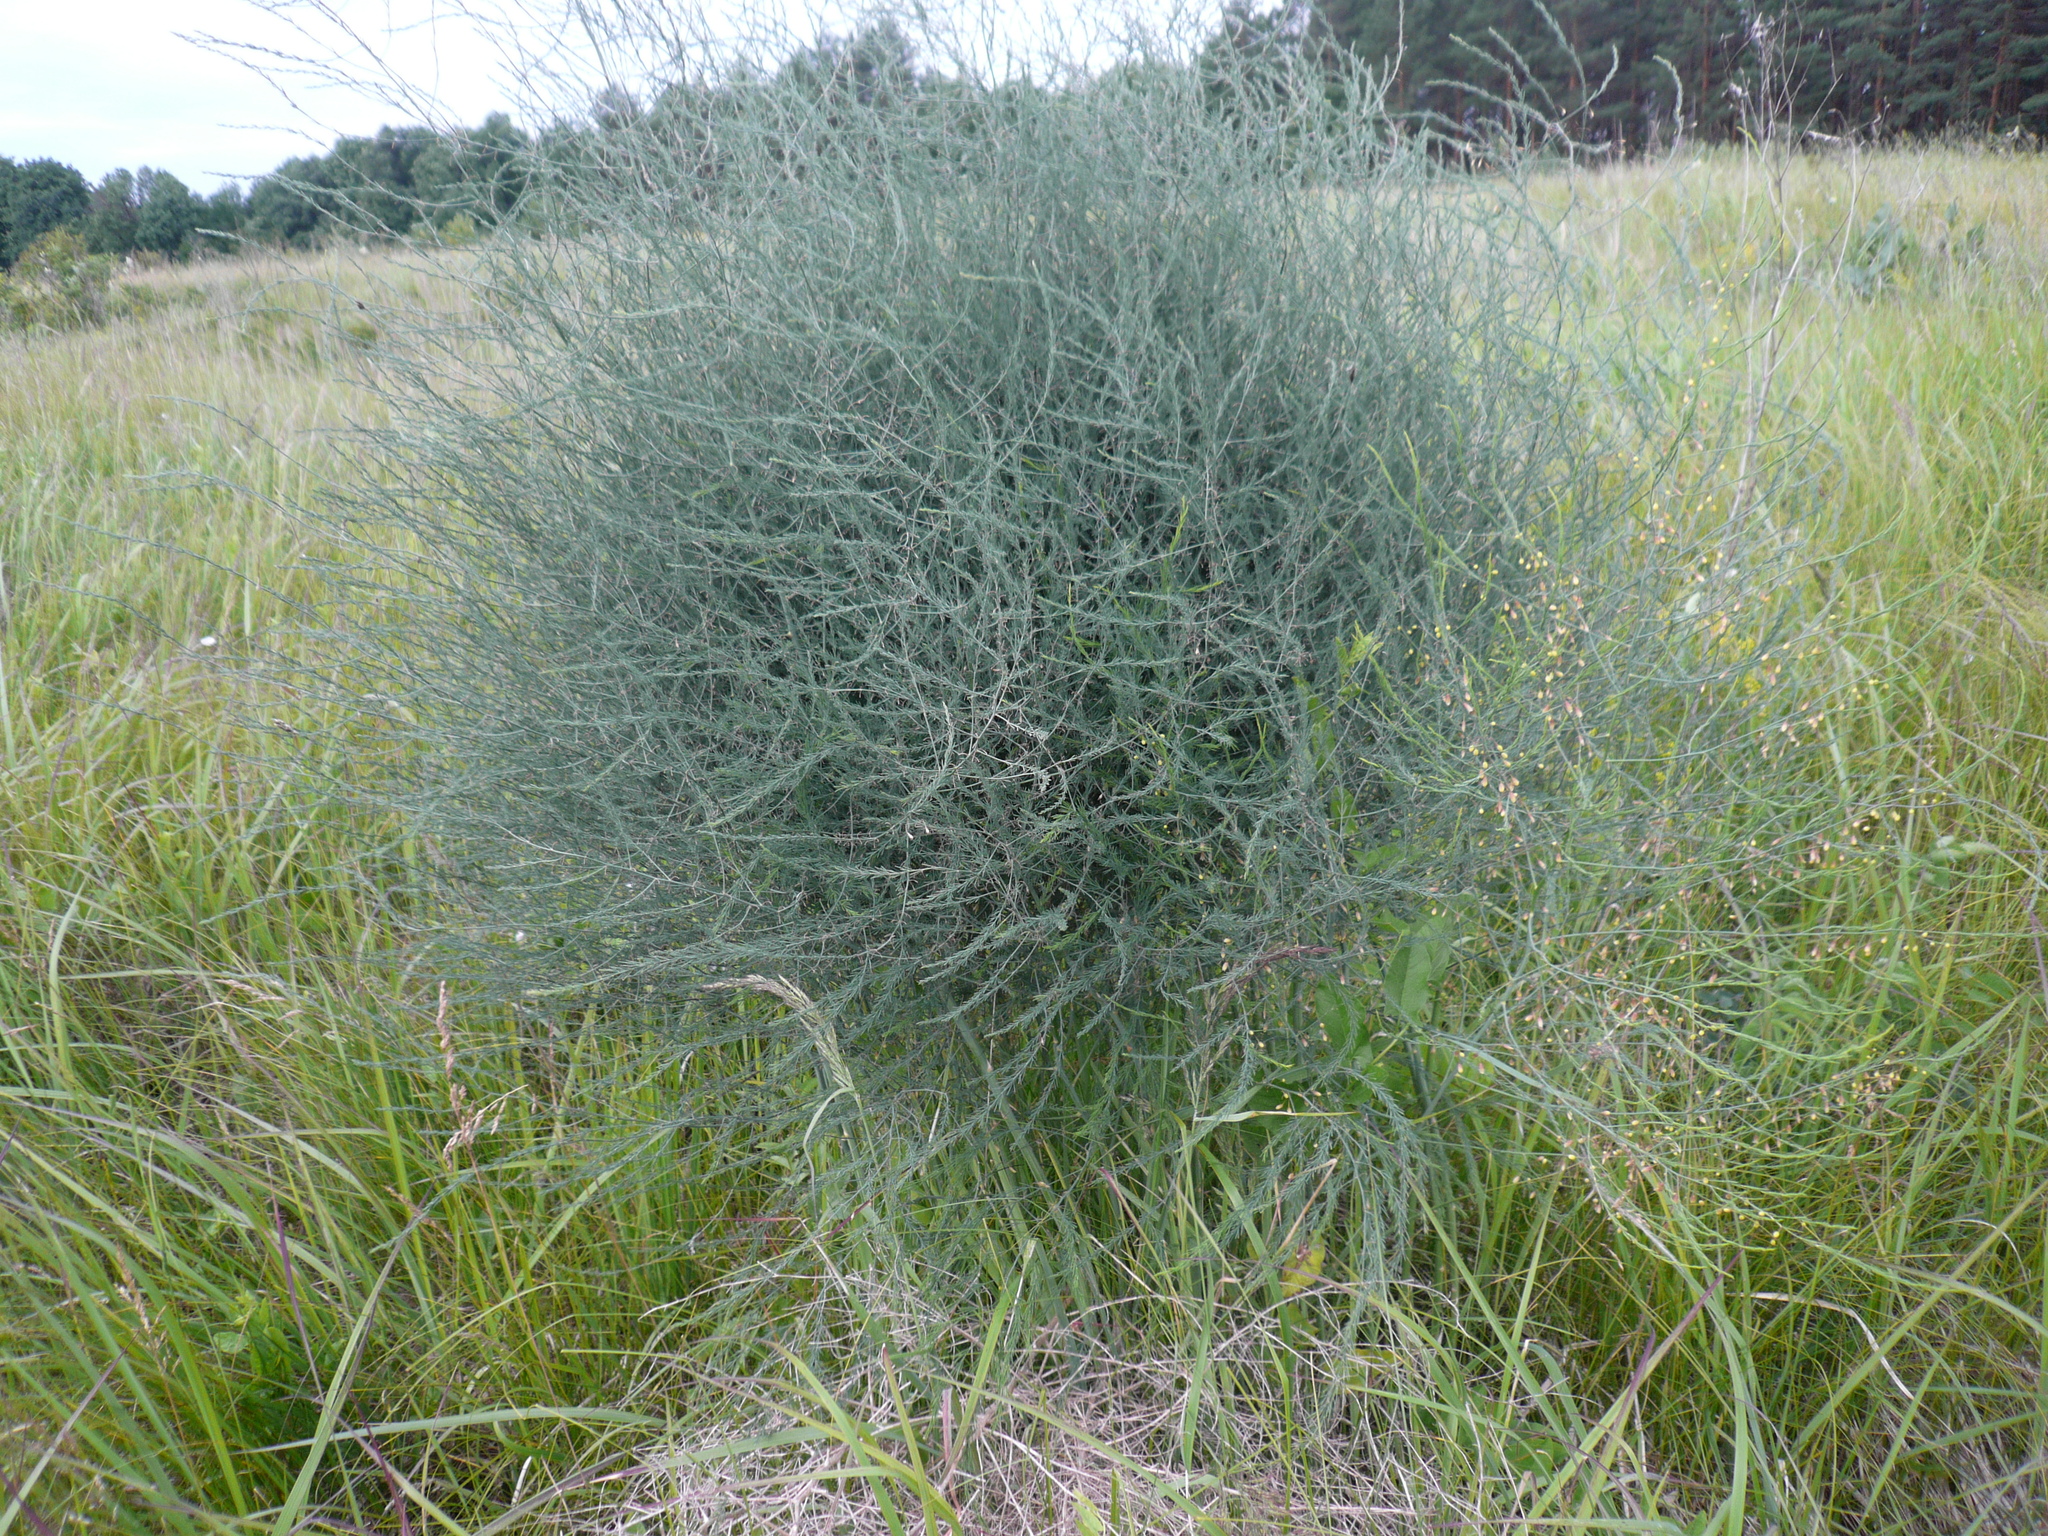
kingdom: Plantae
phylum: Tracheophyta
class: Liliopsida
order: Asparagales
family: Asparagaceae
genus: Asparagus
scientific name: Asparagus officinalis
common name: Garden asparagus
